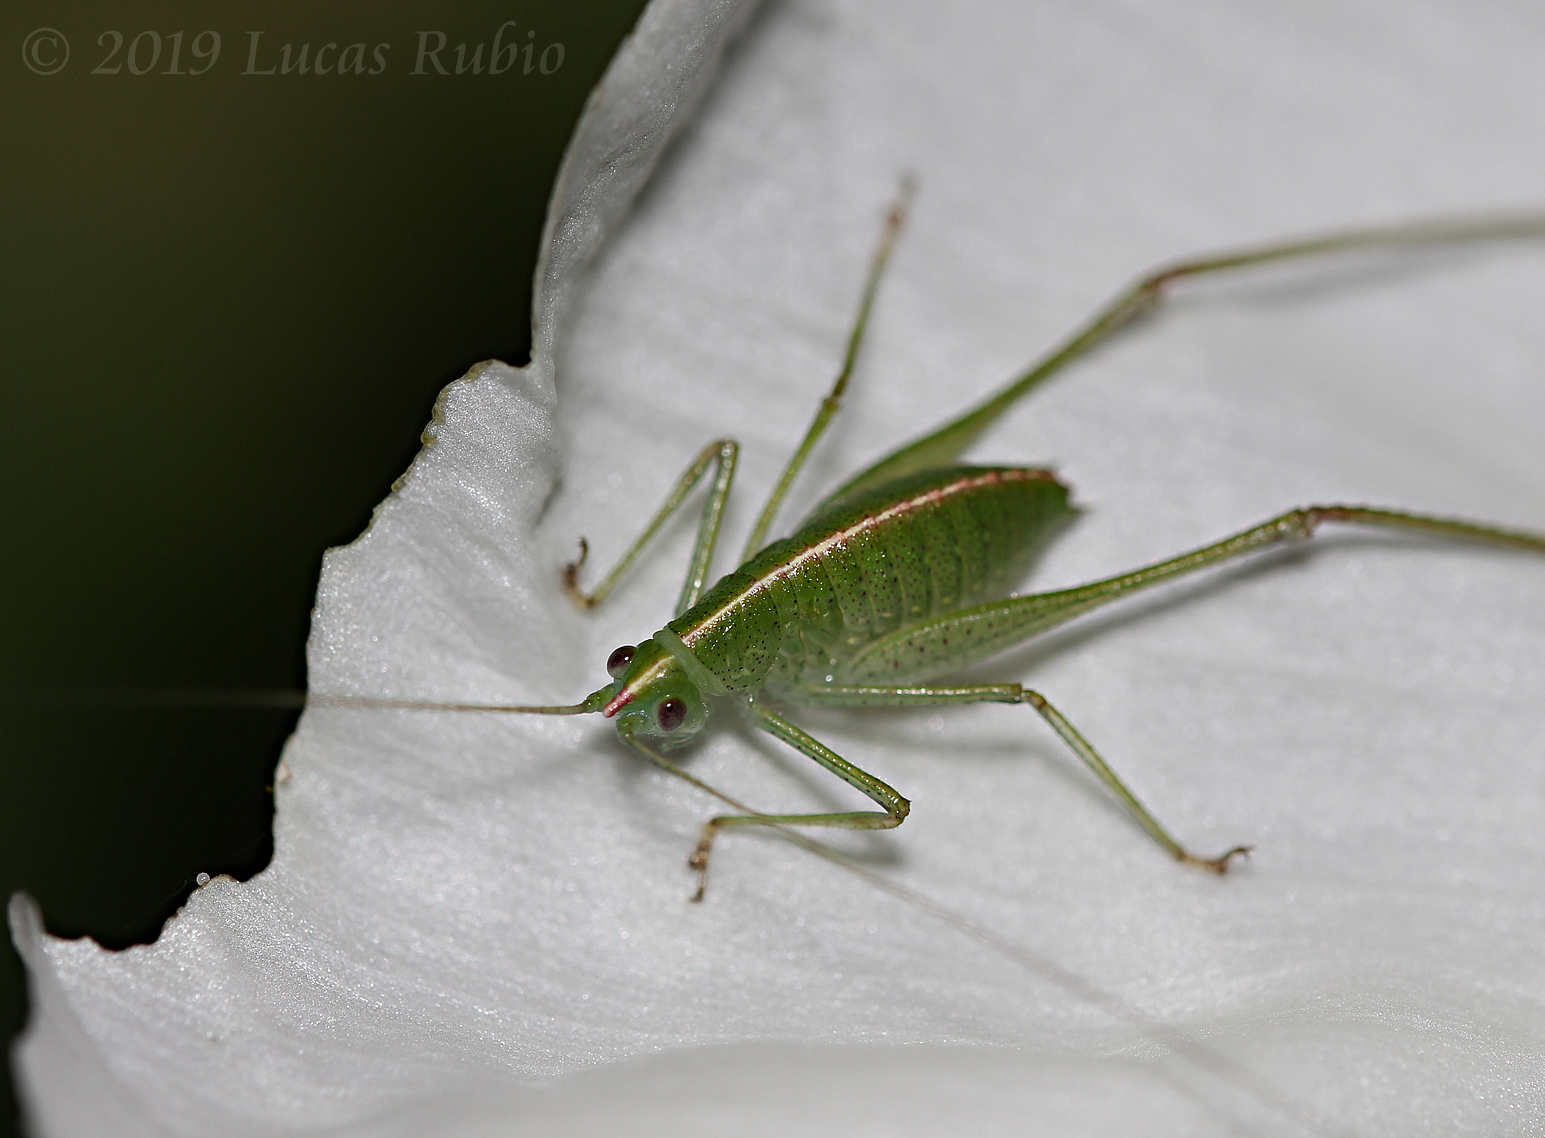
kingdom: Animalia
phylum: Arthropoda
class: Insecta
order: Orthoptera
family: Tettigoniidae
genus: Grammadera
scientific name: Grammadera clara
